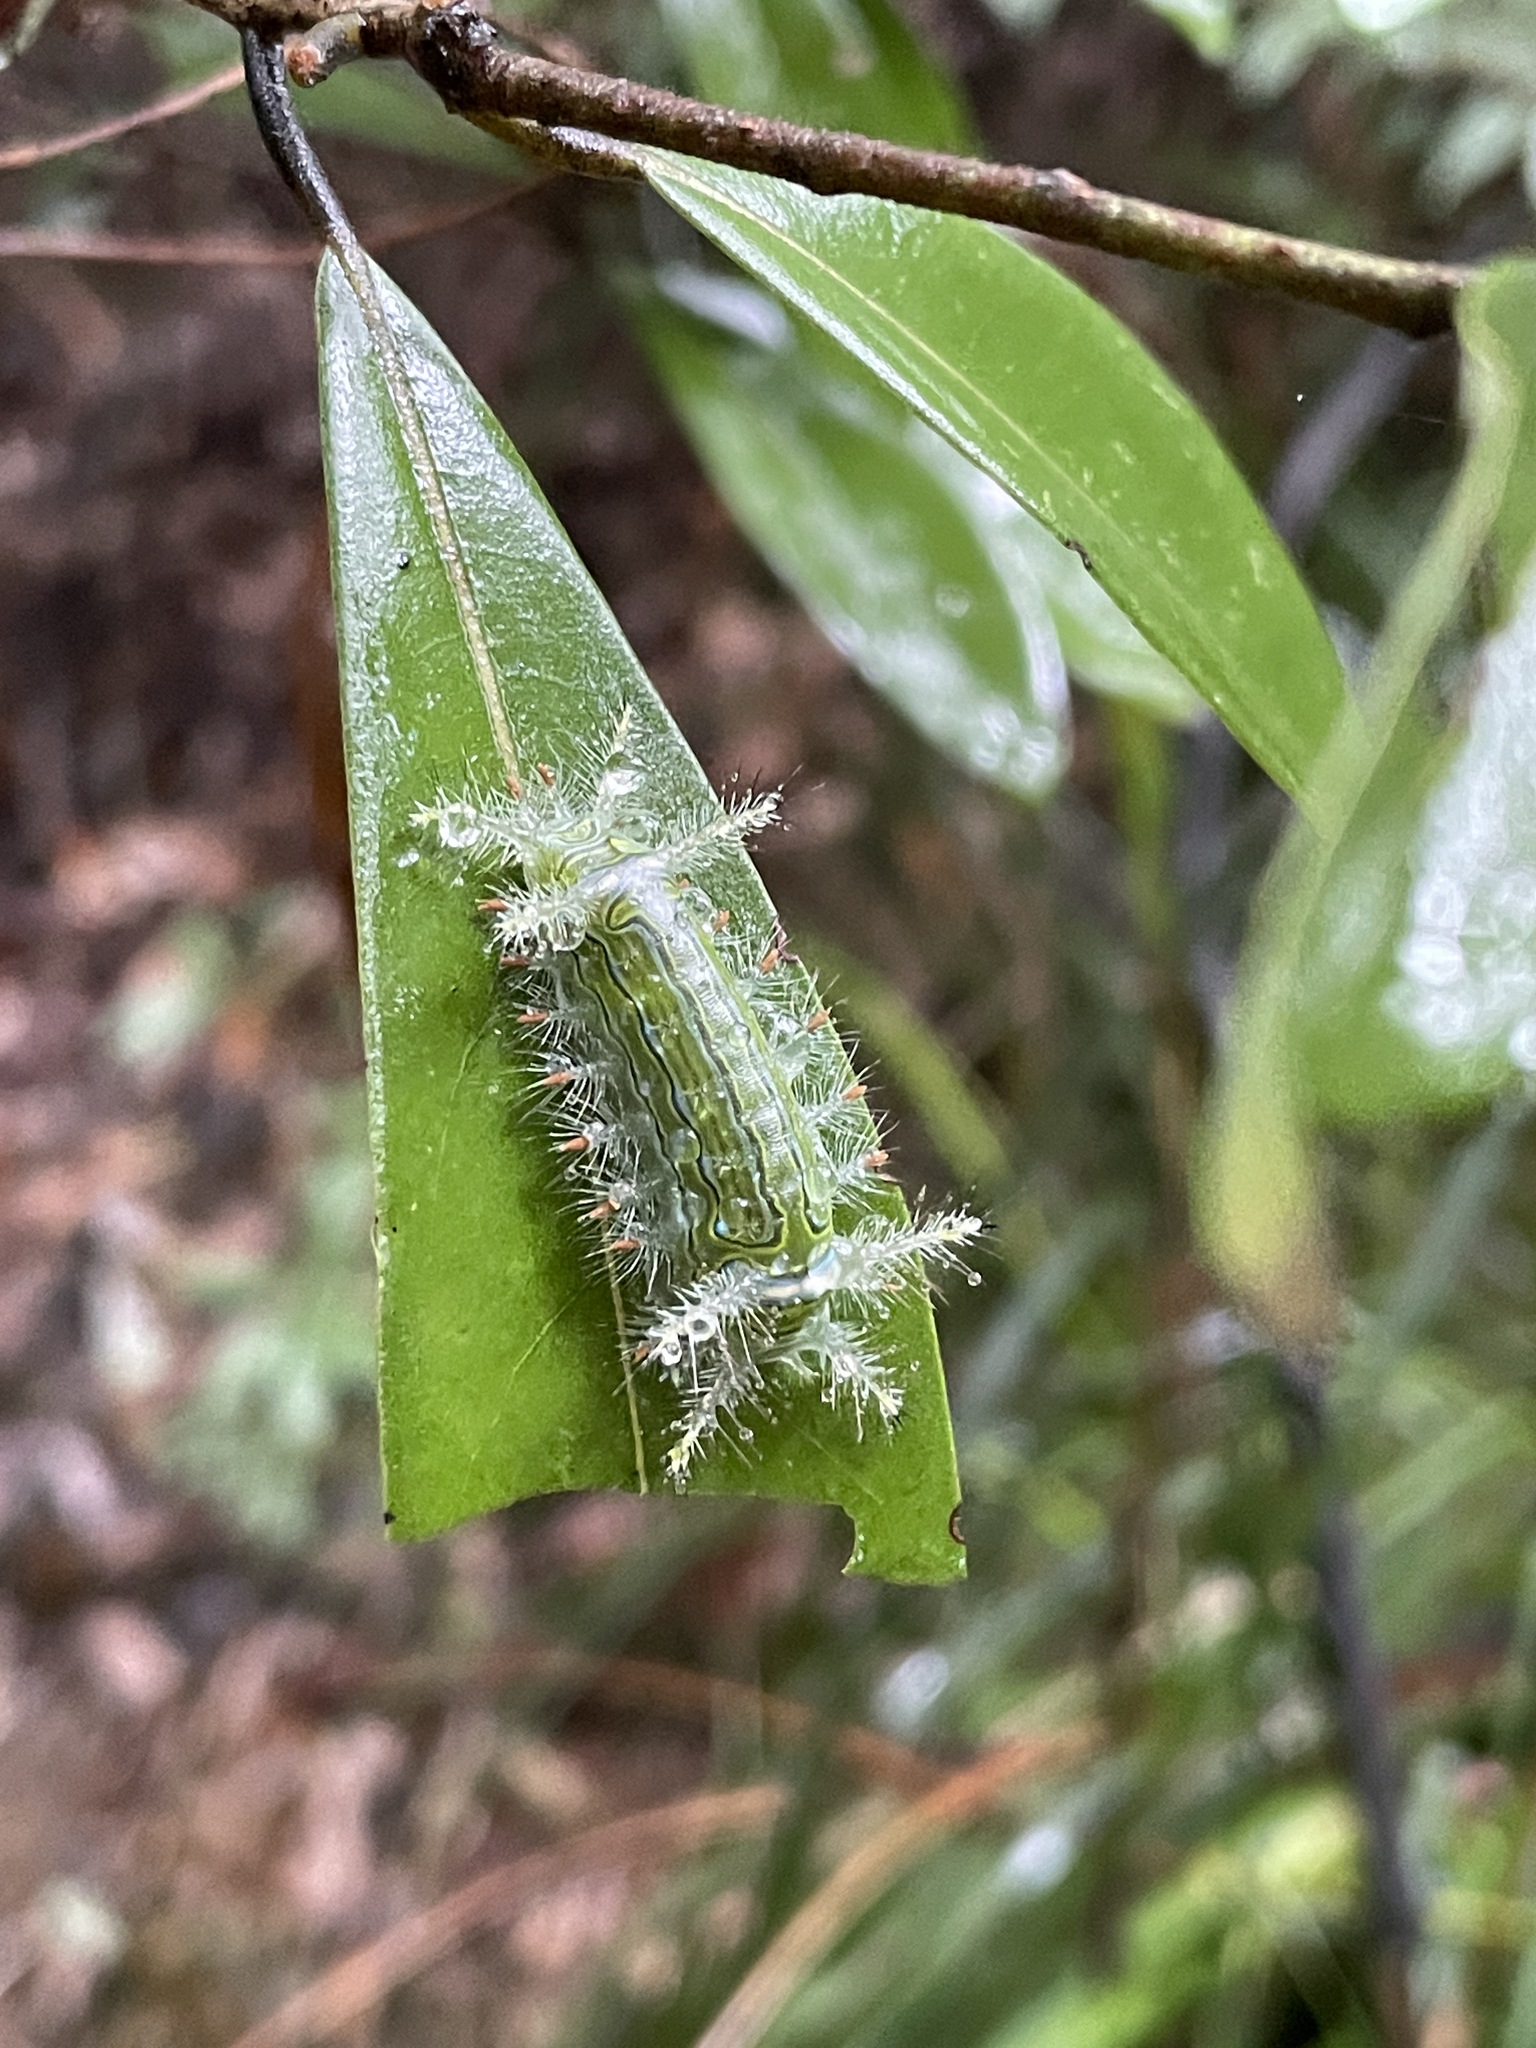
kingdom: Animalia
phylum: Arthropoda
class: Insecta
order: Lepidoptera
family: Limacodidae
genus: Miresa
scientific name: Miresa kwangtungensis
